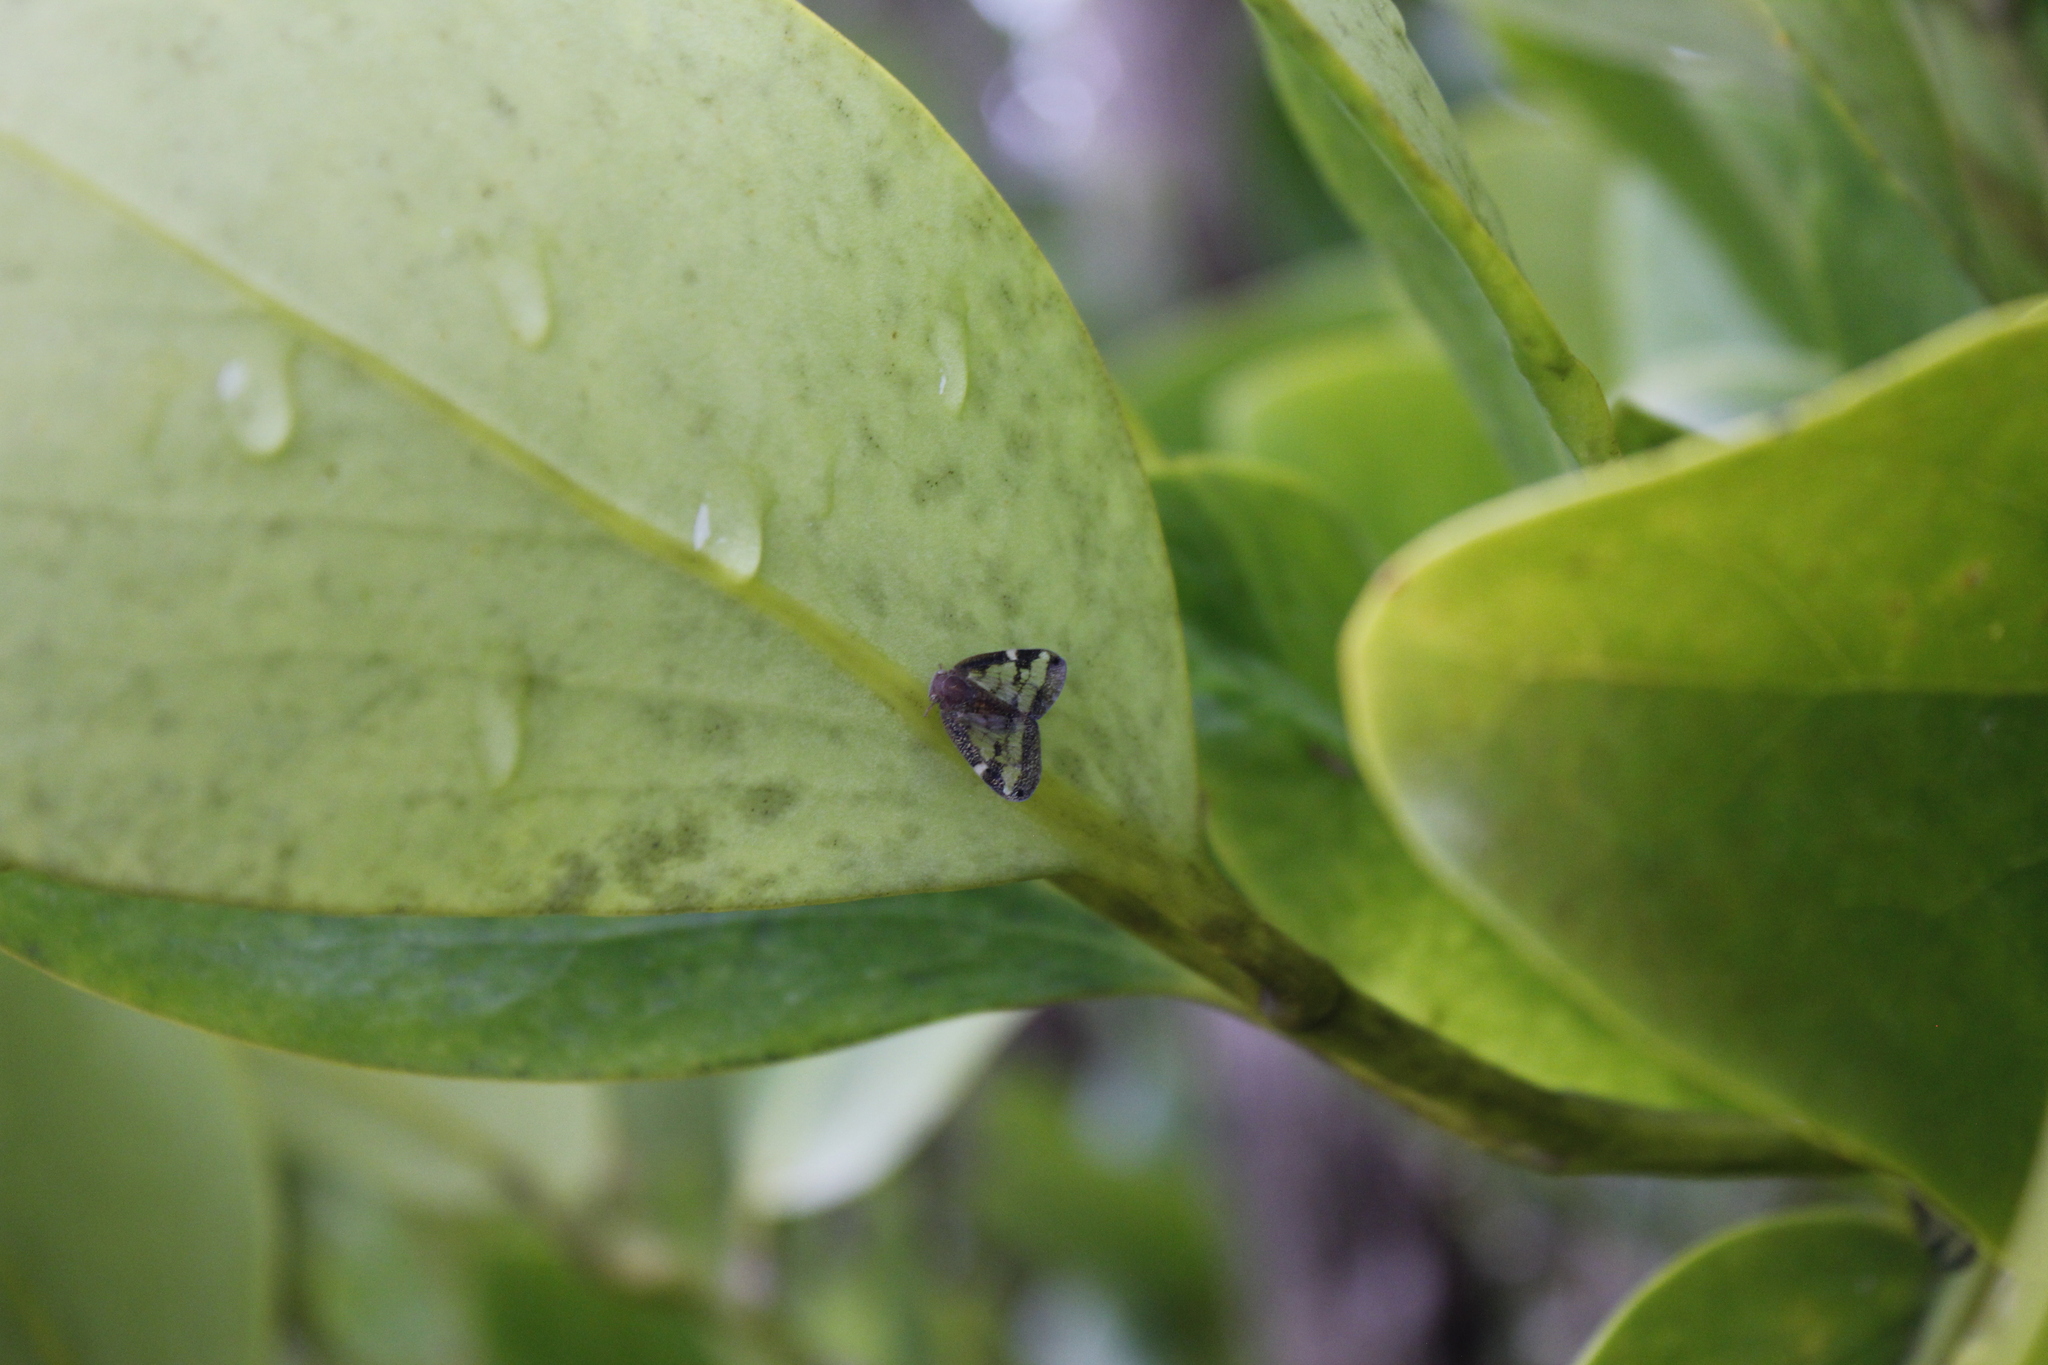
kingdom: Animalia
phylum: Arthropoda
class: Insecta
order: Hemiptera
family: Ricaniidae
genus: Scolypopa
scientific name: Scolypopa australis
